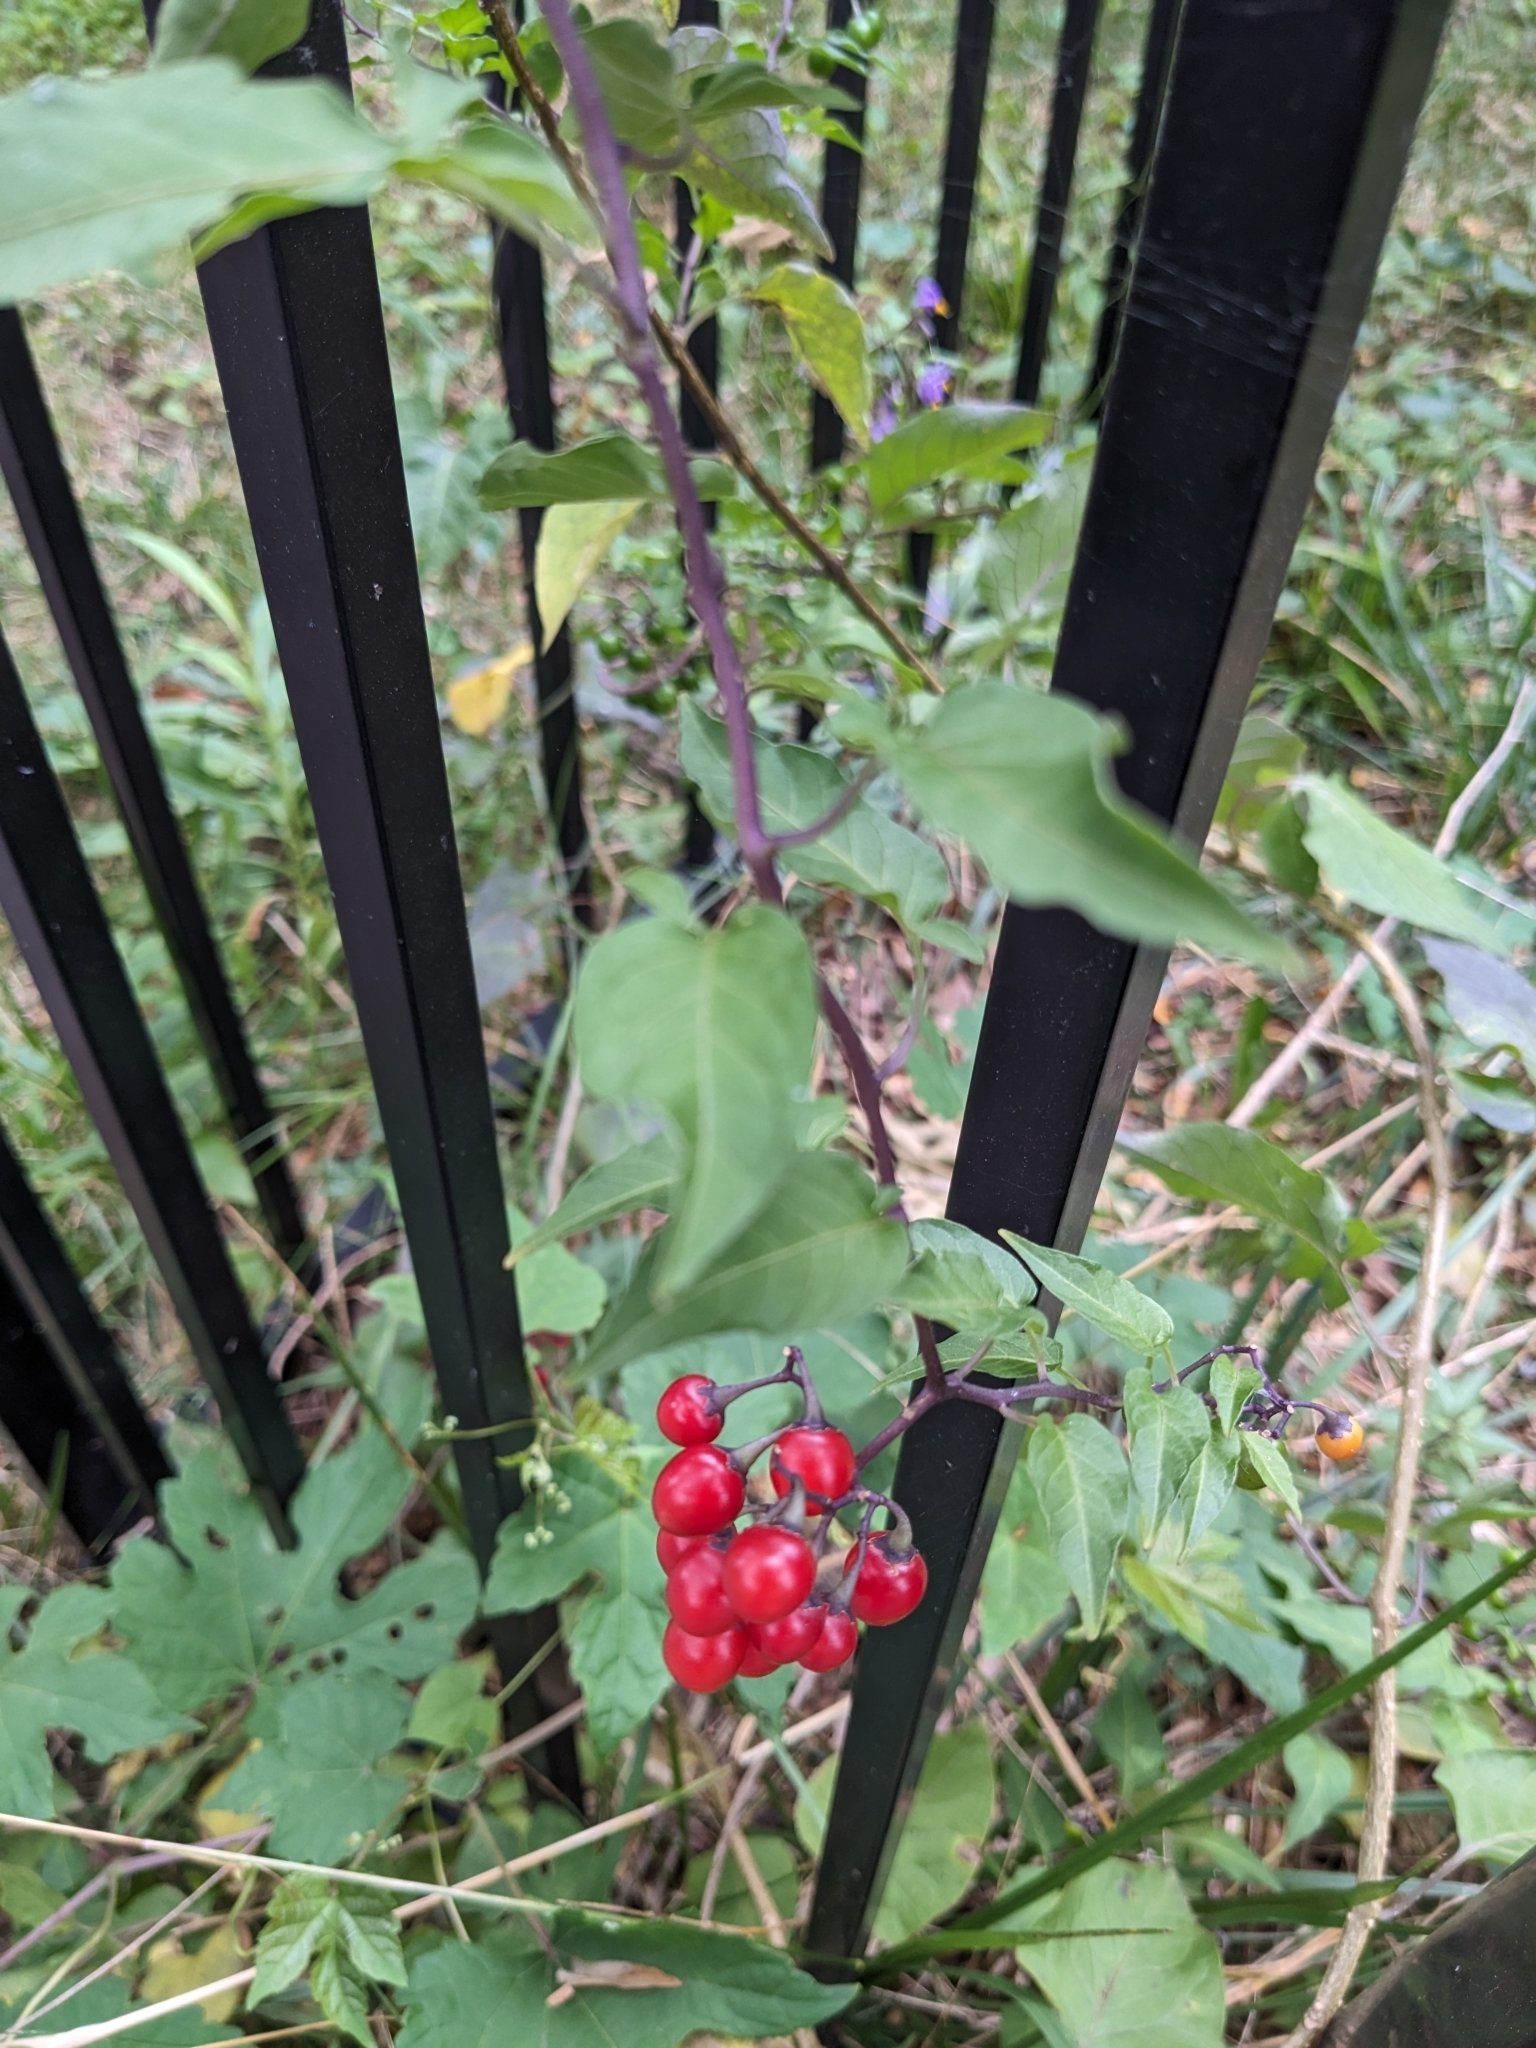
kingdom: Plantae
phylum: Tracheophyta
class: Magnoliopsida
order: Solanales
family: Solanaceae
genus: Solanum
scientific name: Solanum dulcamara
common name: Climbing nightshade
